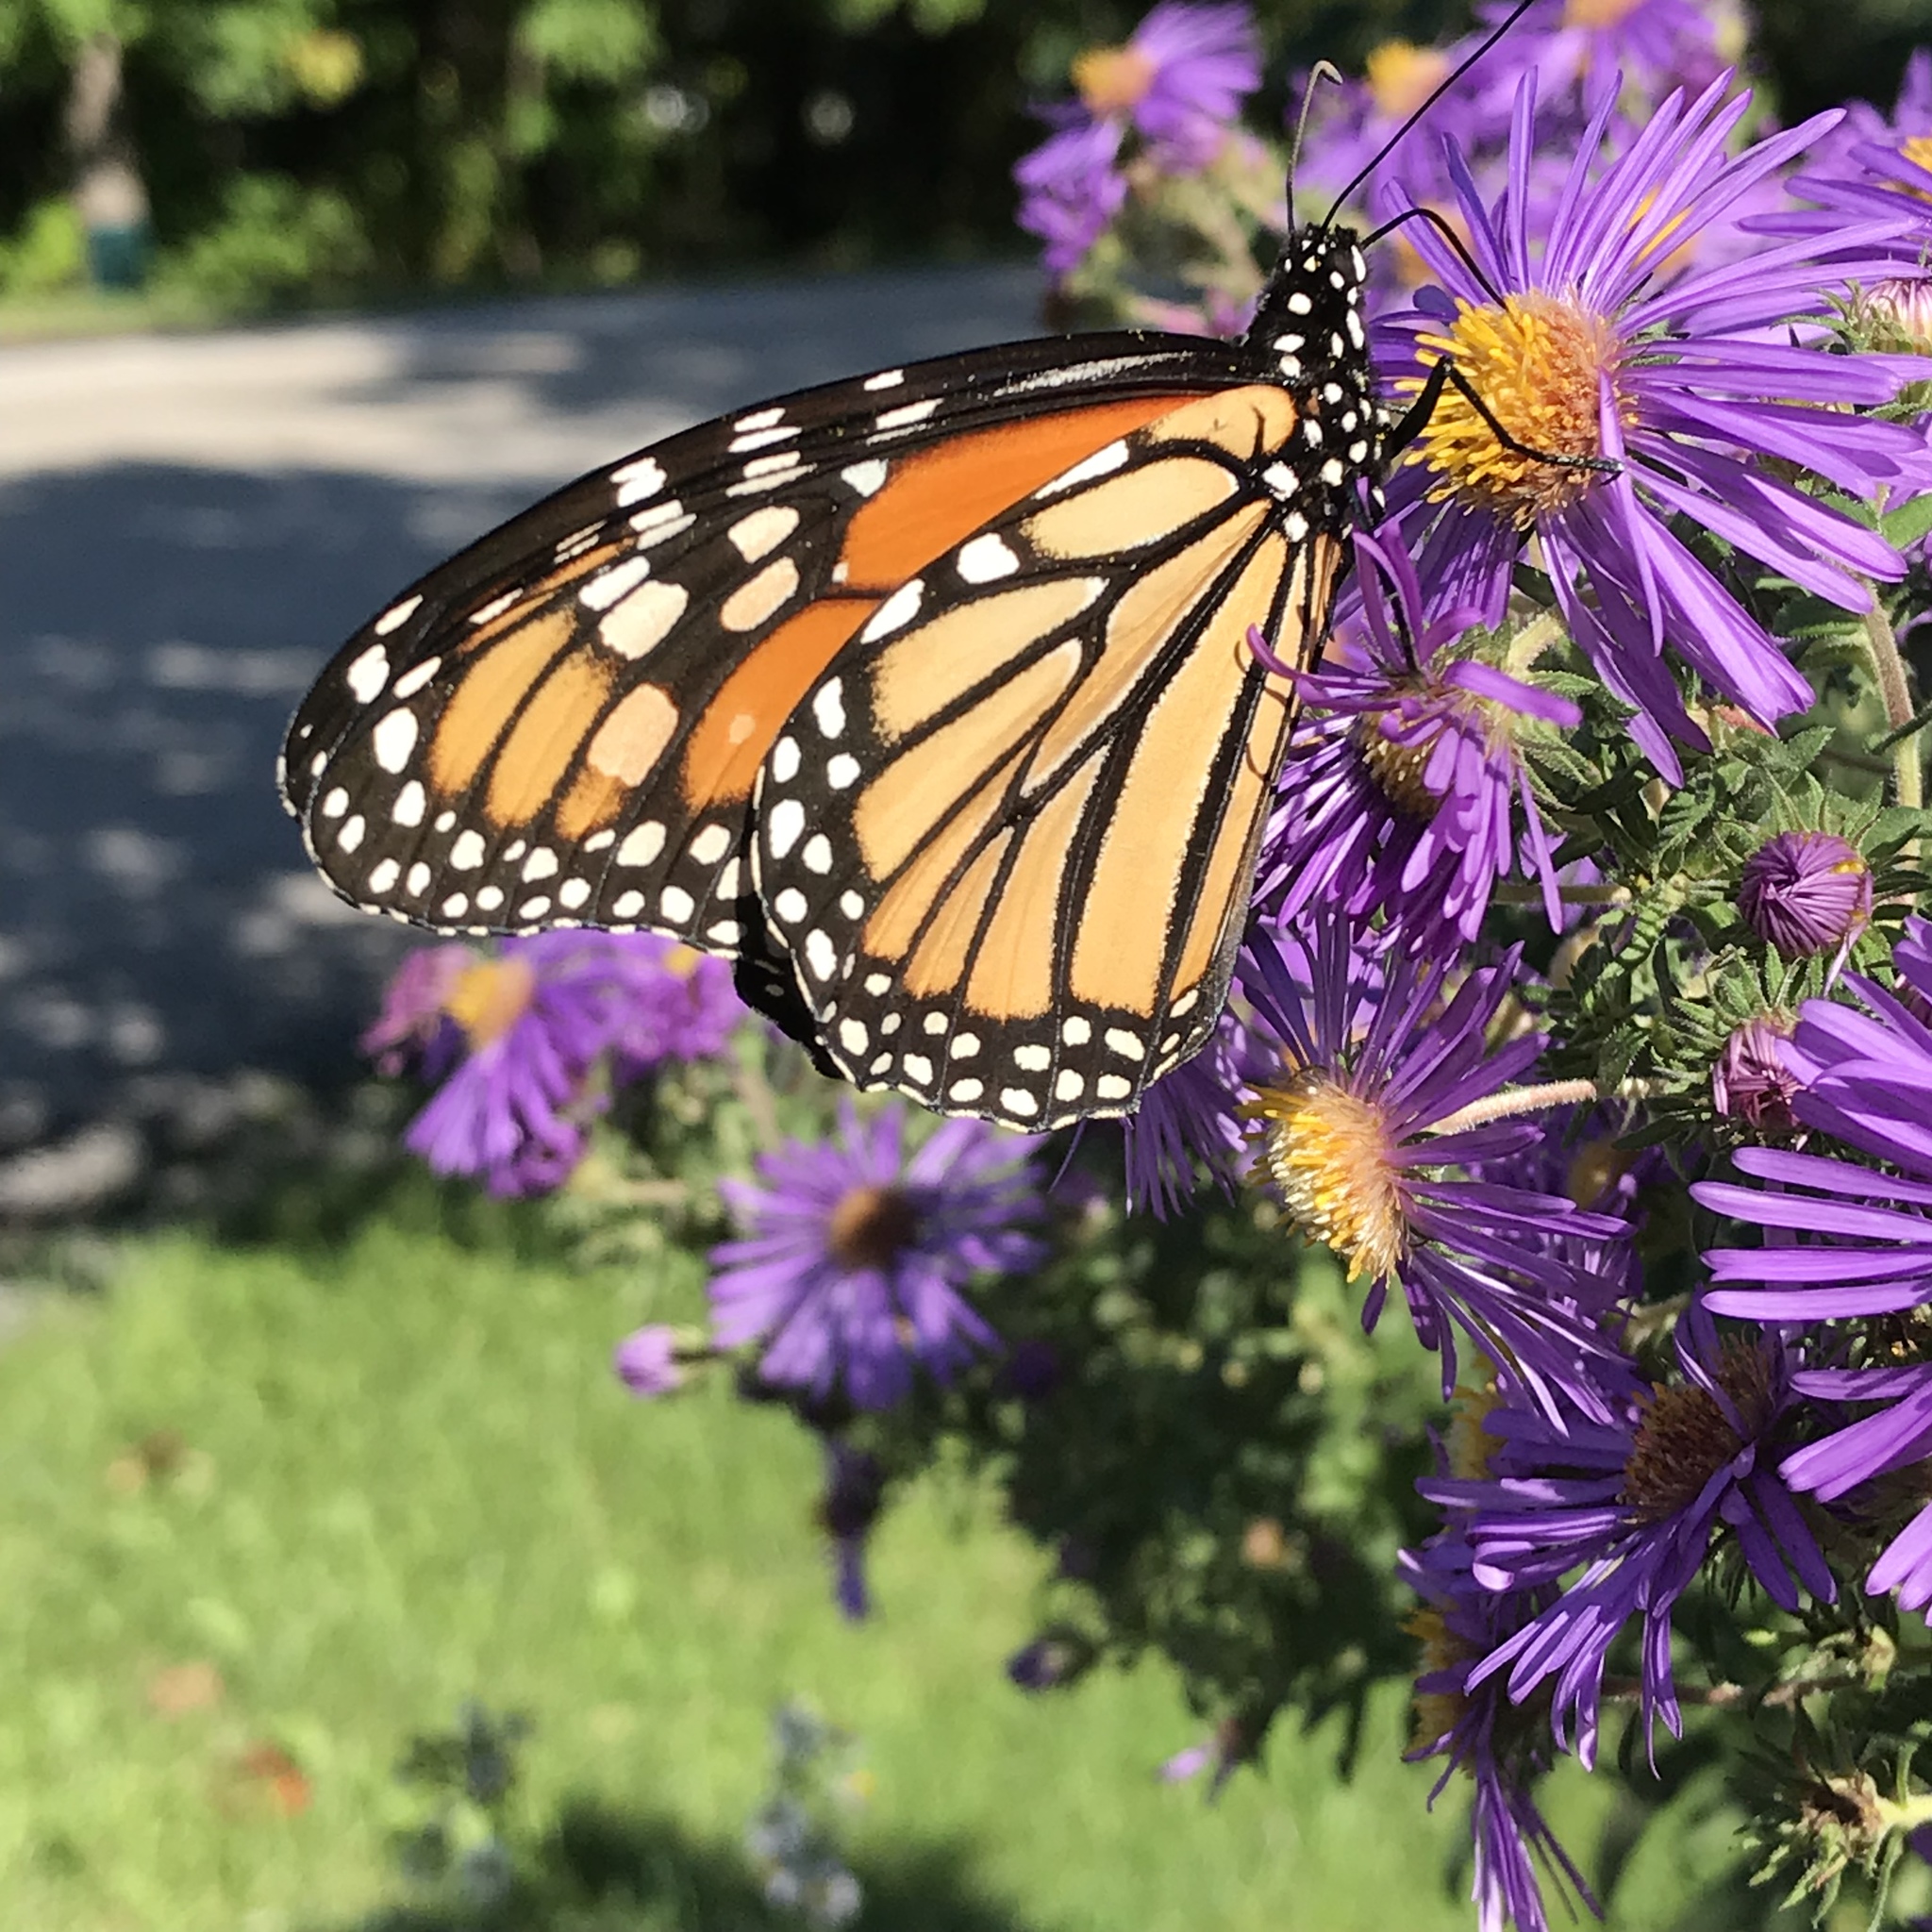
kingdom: Animalia
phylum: Arthropoda
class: Insecta
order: Lepidoptera
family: Nymphalidae
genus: Danaus
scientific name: Danaus plexippus
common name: Monarch
